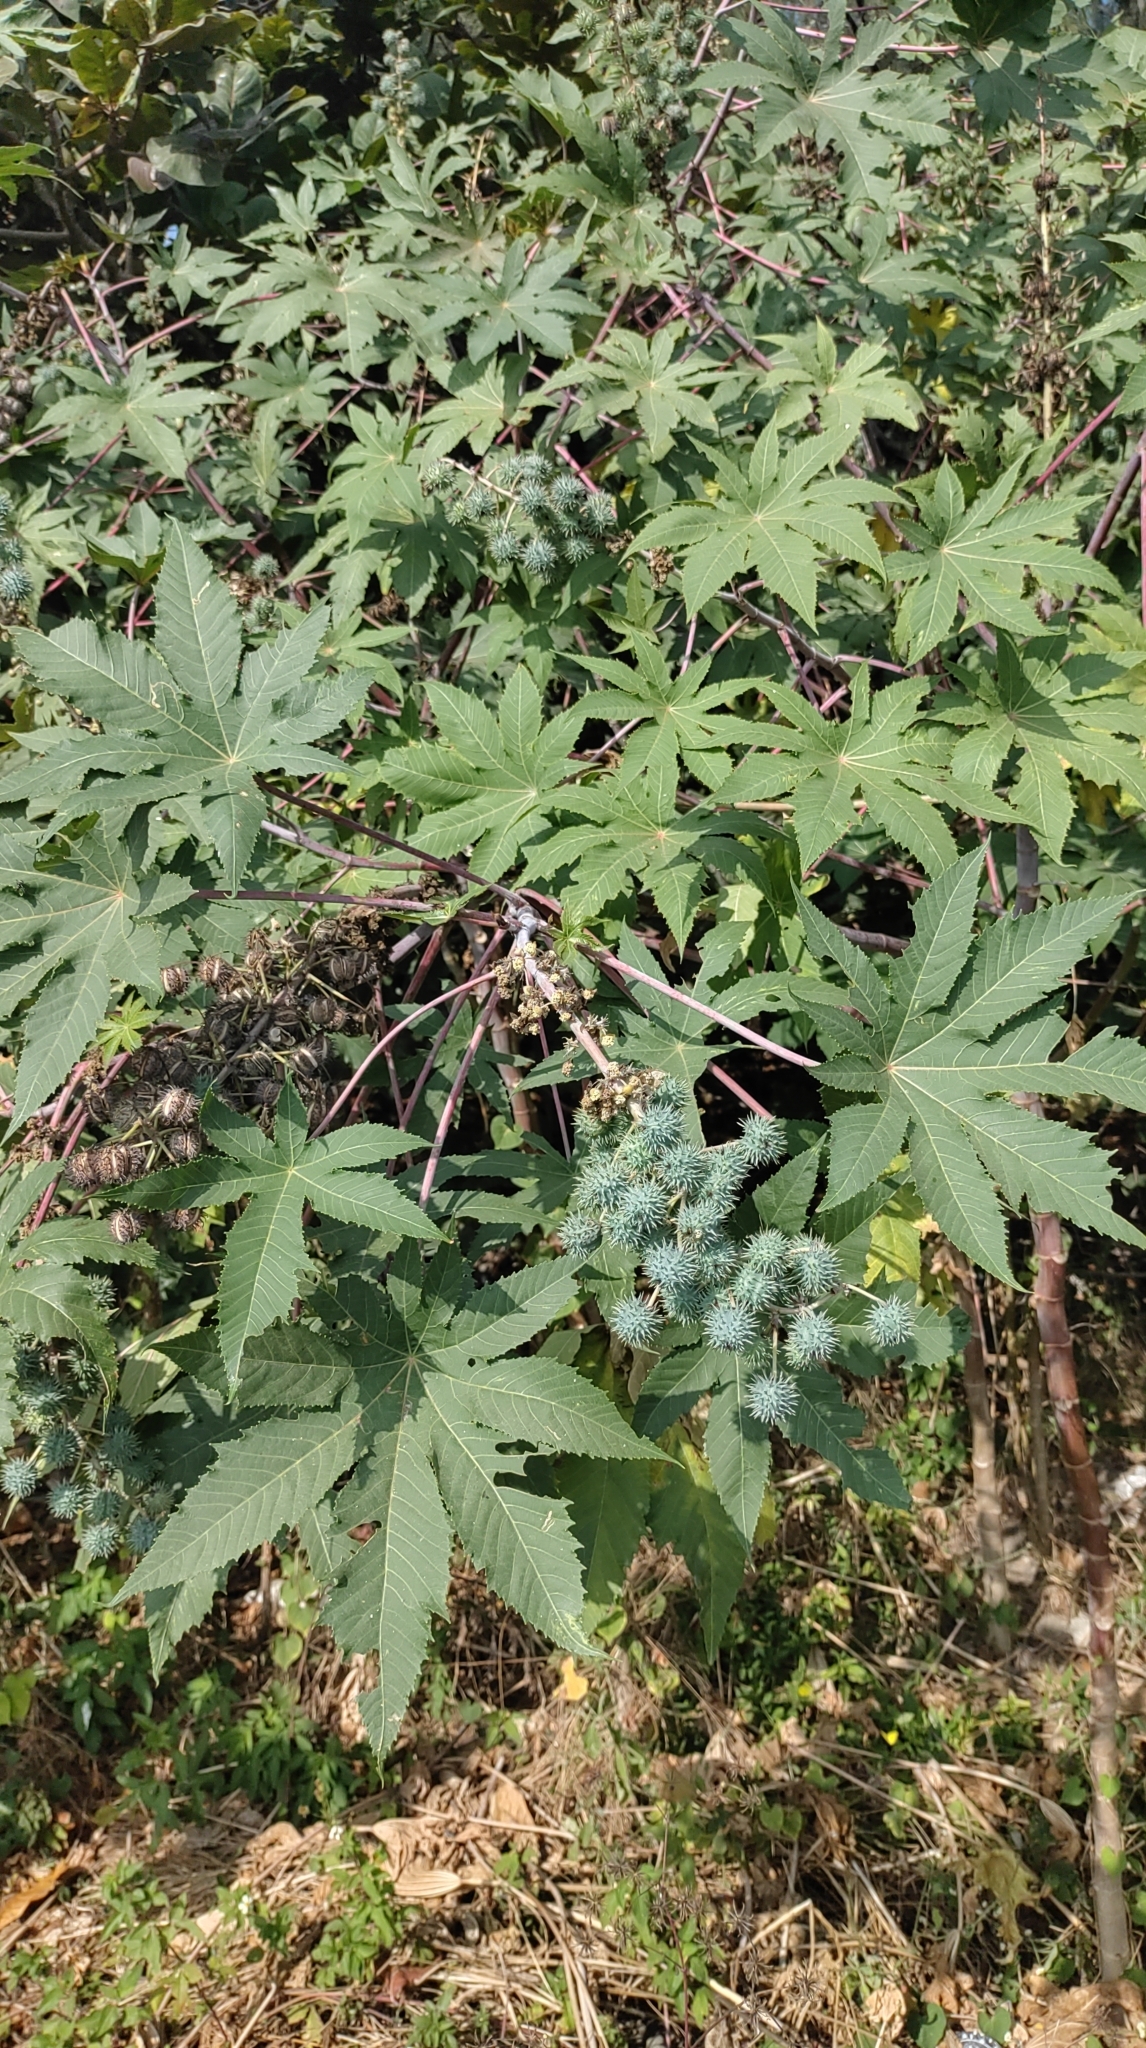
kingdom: Plantae
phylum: Tracheophyta
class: Magnoliopsida
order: Malpighiales
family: Euphorbiaceae
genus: Ricinus
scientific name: Ricinus communis
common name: Castor-oil-plant
